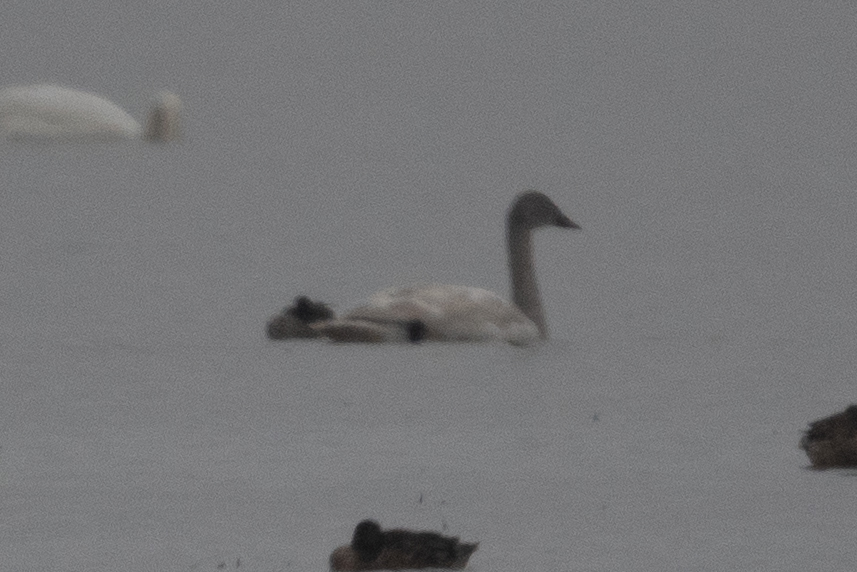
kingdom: Animalia
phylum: Chordata
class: Aves
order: Anseriformes
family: Anatidae
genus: Cygnus
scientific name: Cygnus columbianus
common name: Tundra swan
